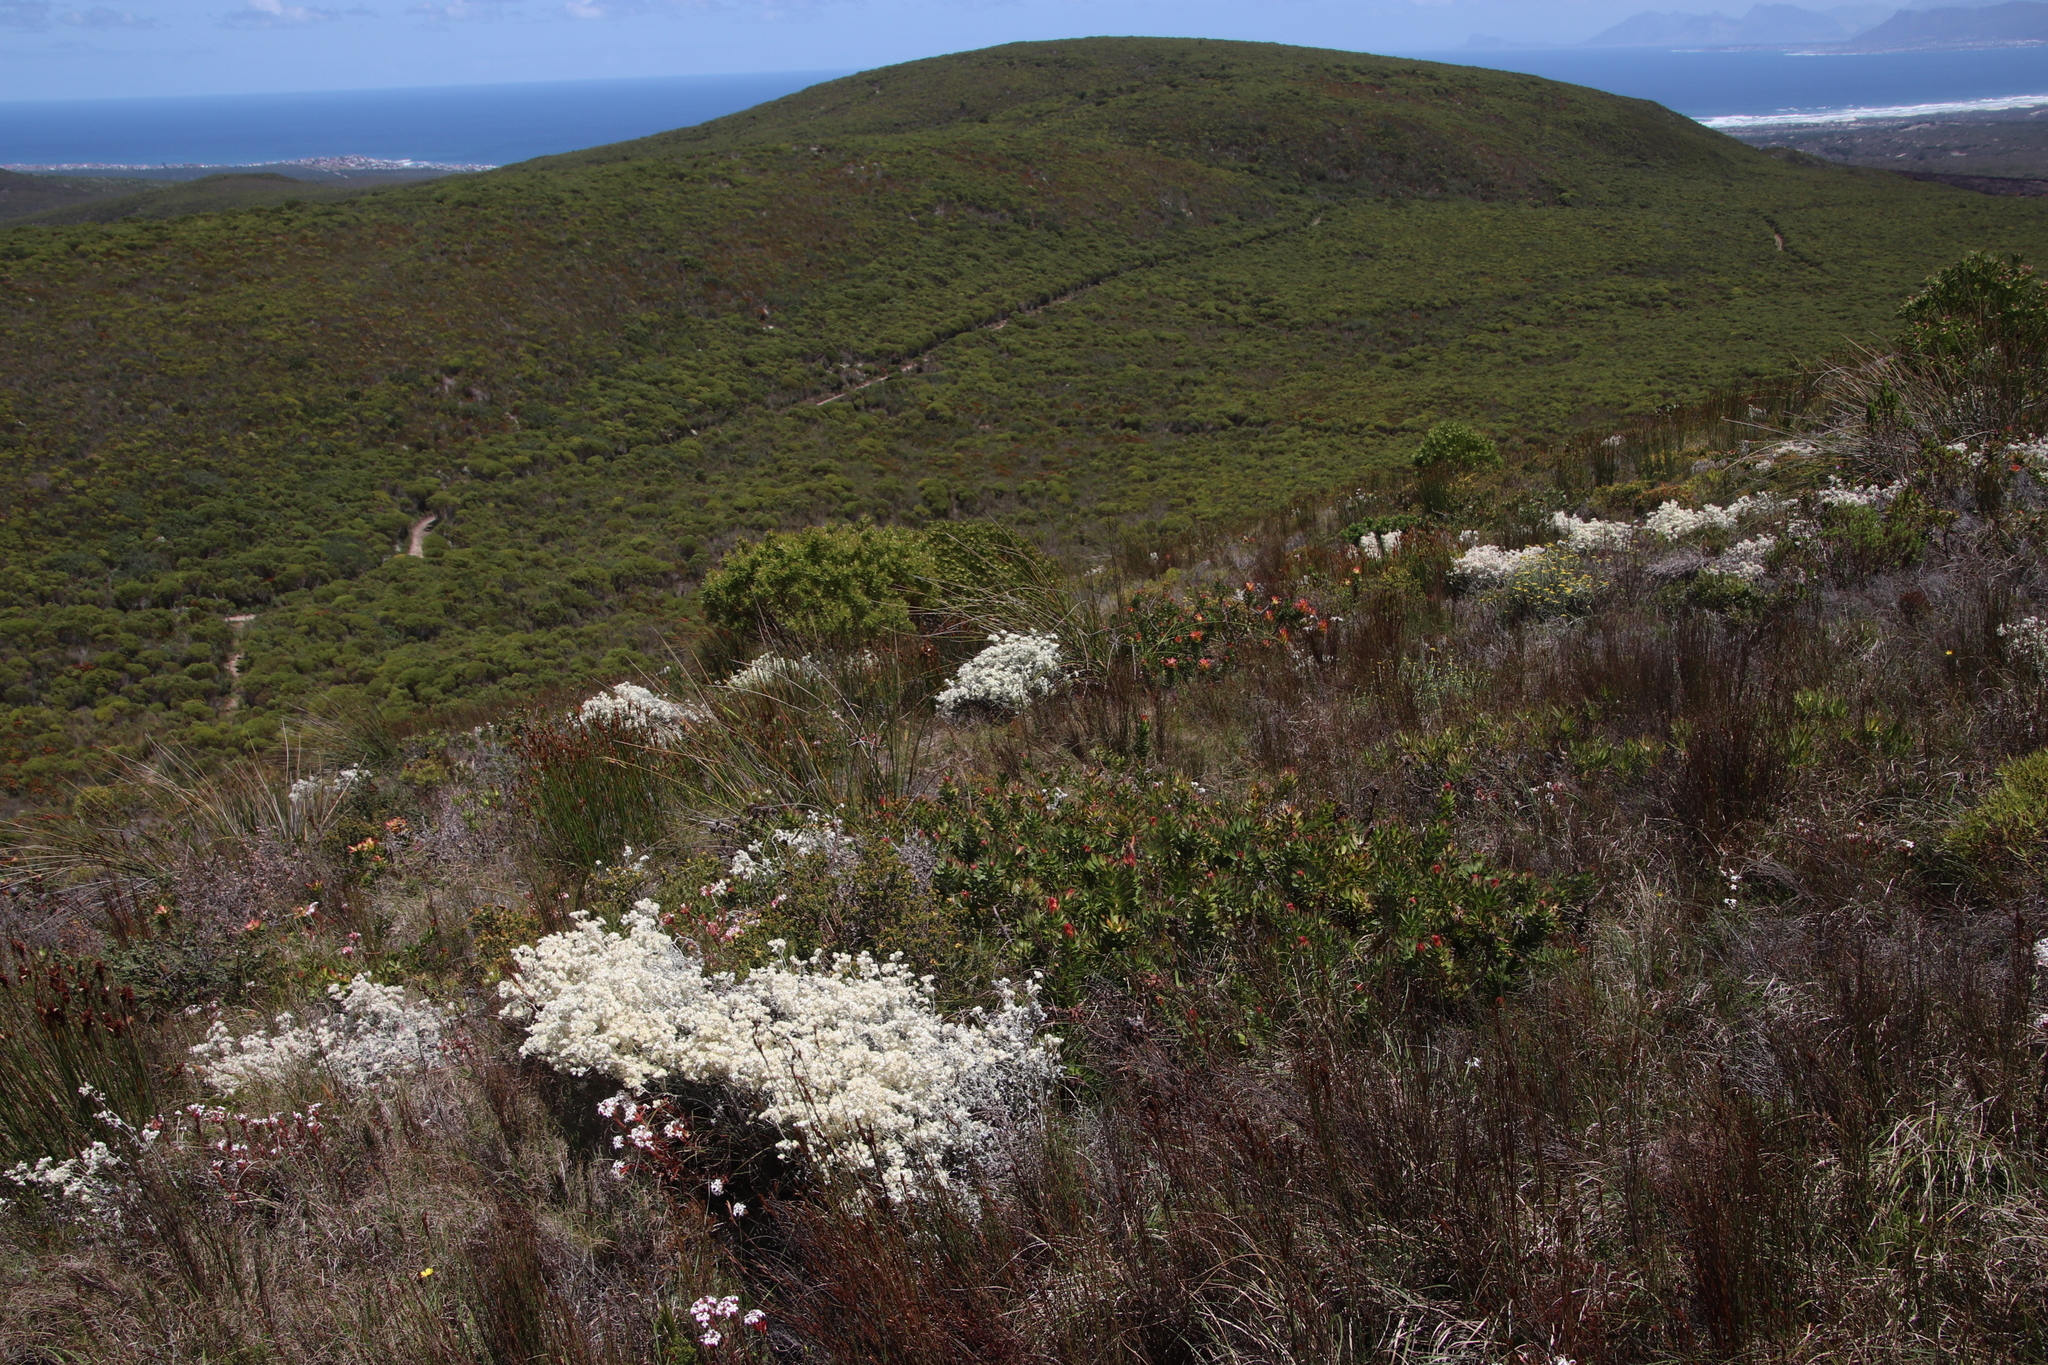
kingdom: Plantae
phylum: Tracheophyta
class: Magnoliopsida
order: Proteales
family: Proteaceae
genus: Mimetes
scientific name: Mimetes cucullatus
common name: Common pagoda
